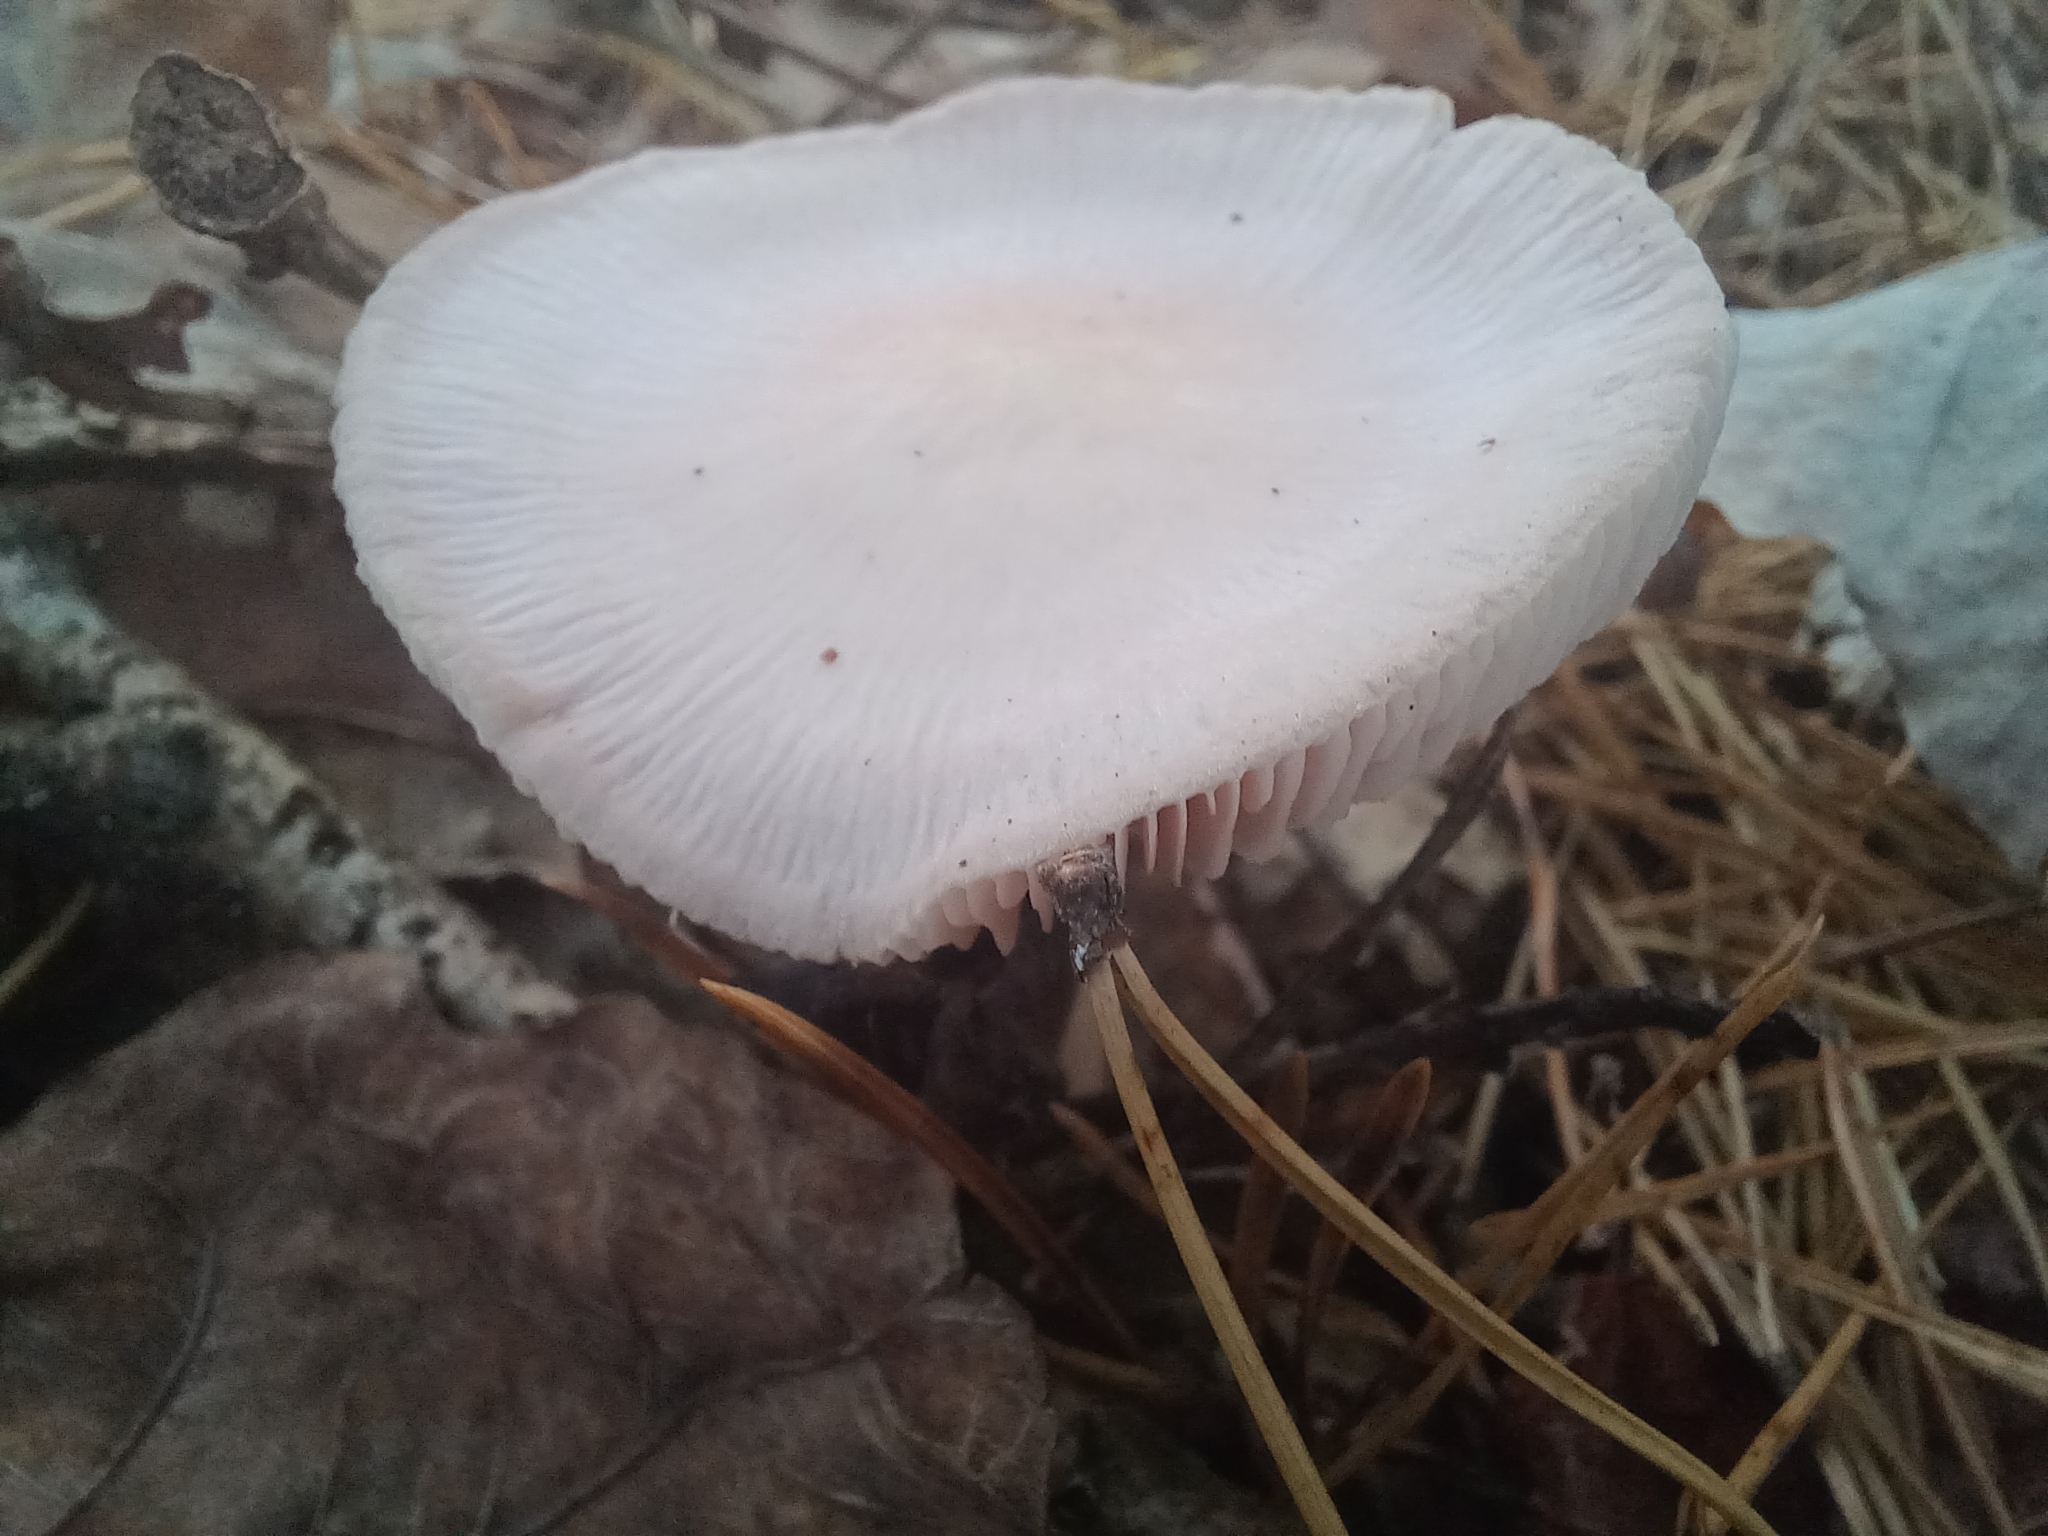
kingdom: Fungi
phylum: Basidiomycota
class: Agaricomycetes
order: Agaricales
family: Mycenaceae
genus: Mycena
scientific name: Mycena rosea
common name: Rosy bonnet
